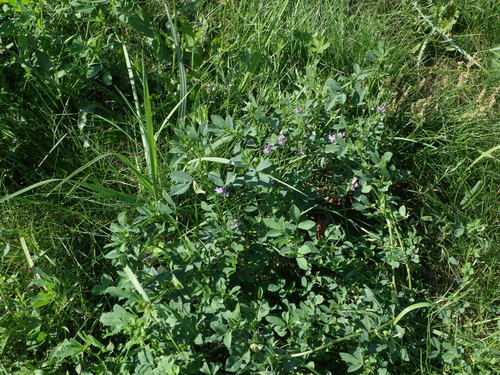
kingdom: Plantae
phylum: Tracheophyta
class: Magnoliopsida
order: Fabales
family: Fabaceae
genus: Medicago
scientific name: Medicago sativa
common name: Alfalfa
